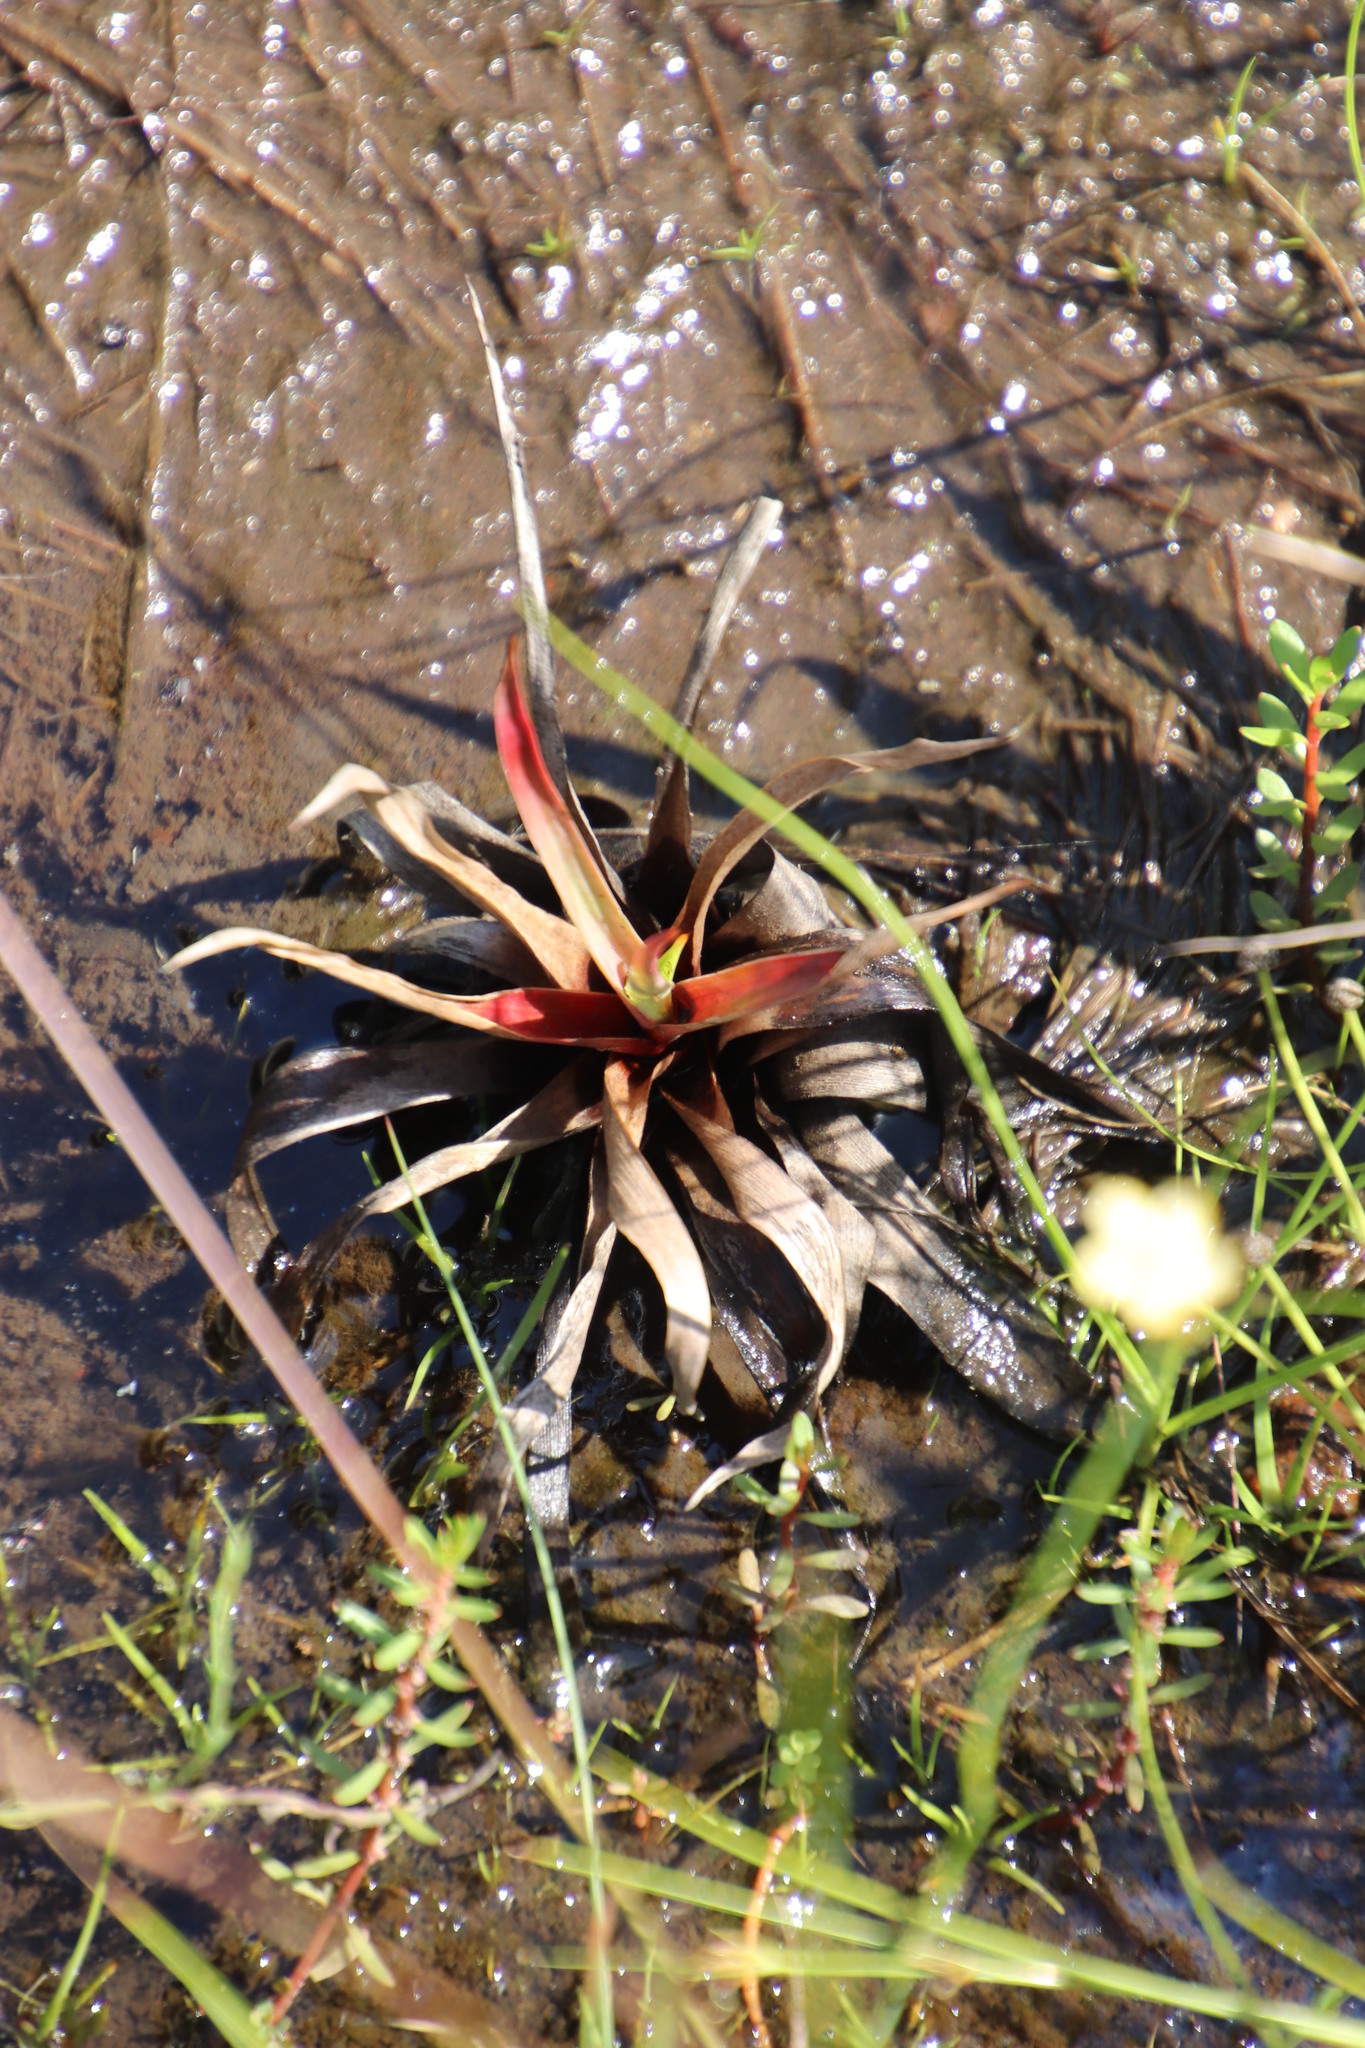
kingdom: Plantae
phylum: Tracheophyta
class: Liliopsida
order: Poales
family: Juncaceae
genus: Juncus
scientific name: Juncus lomatophyllus
